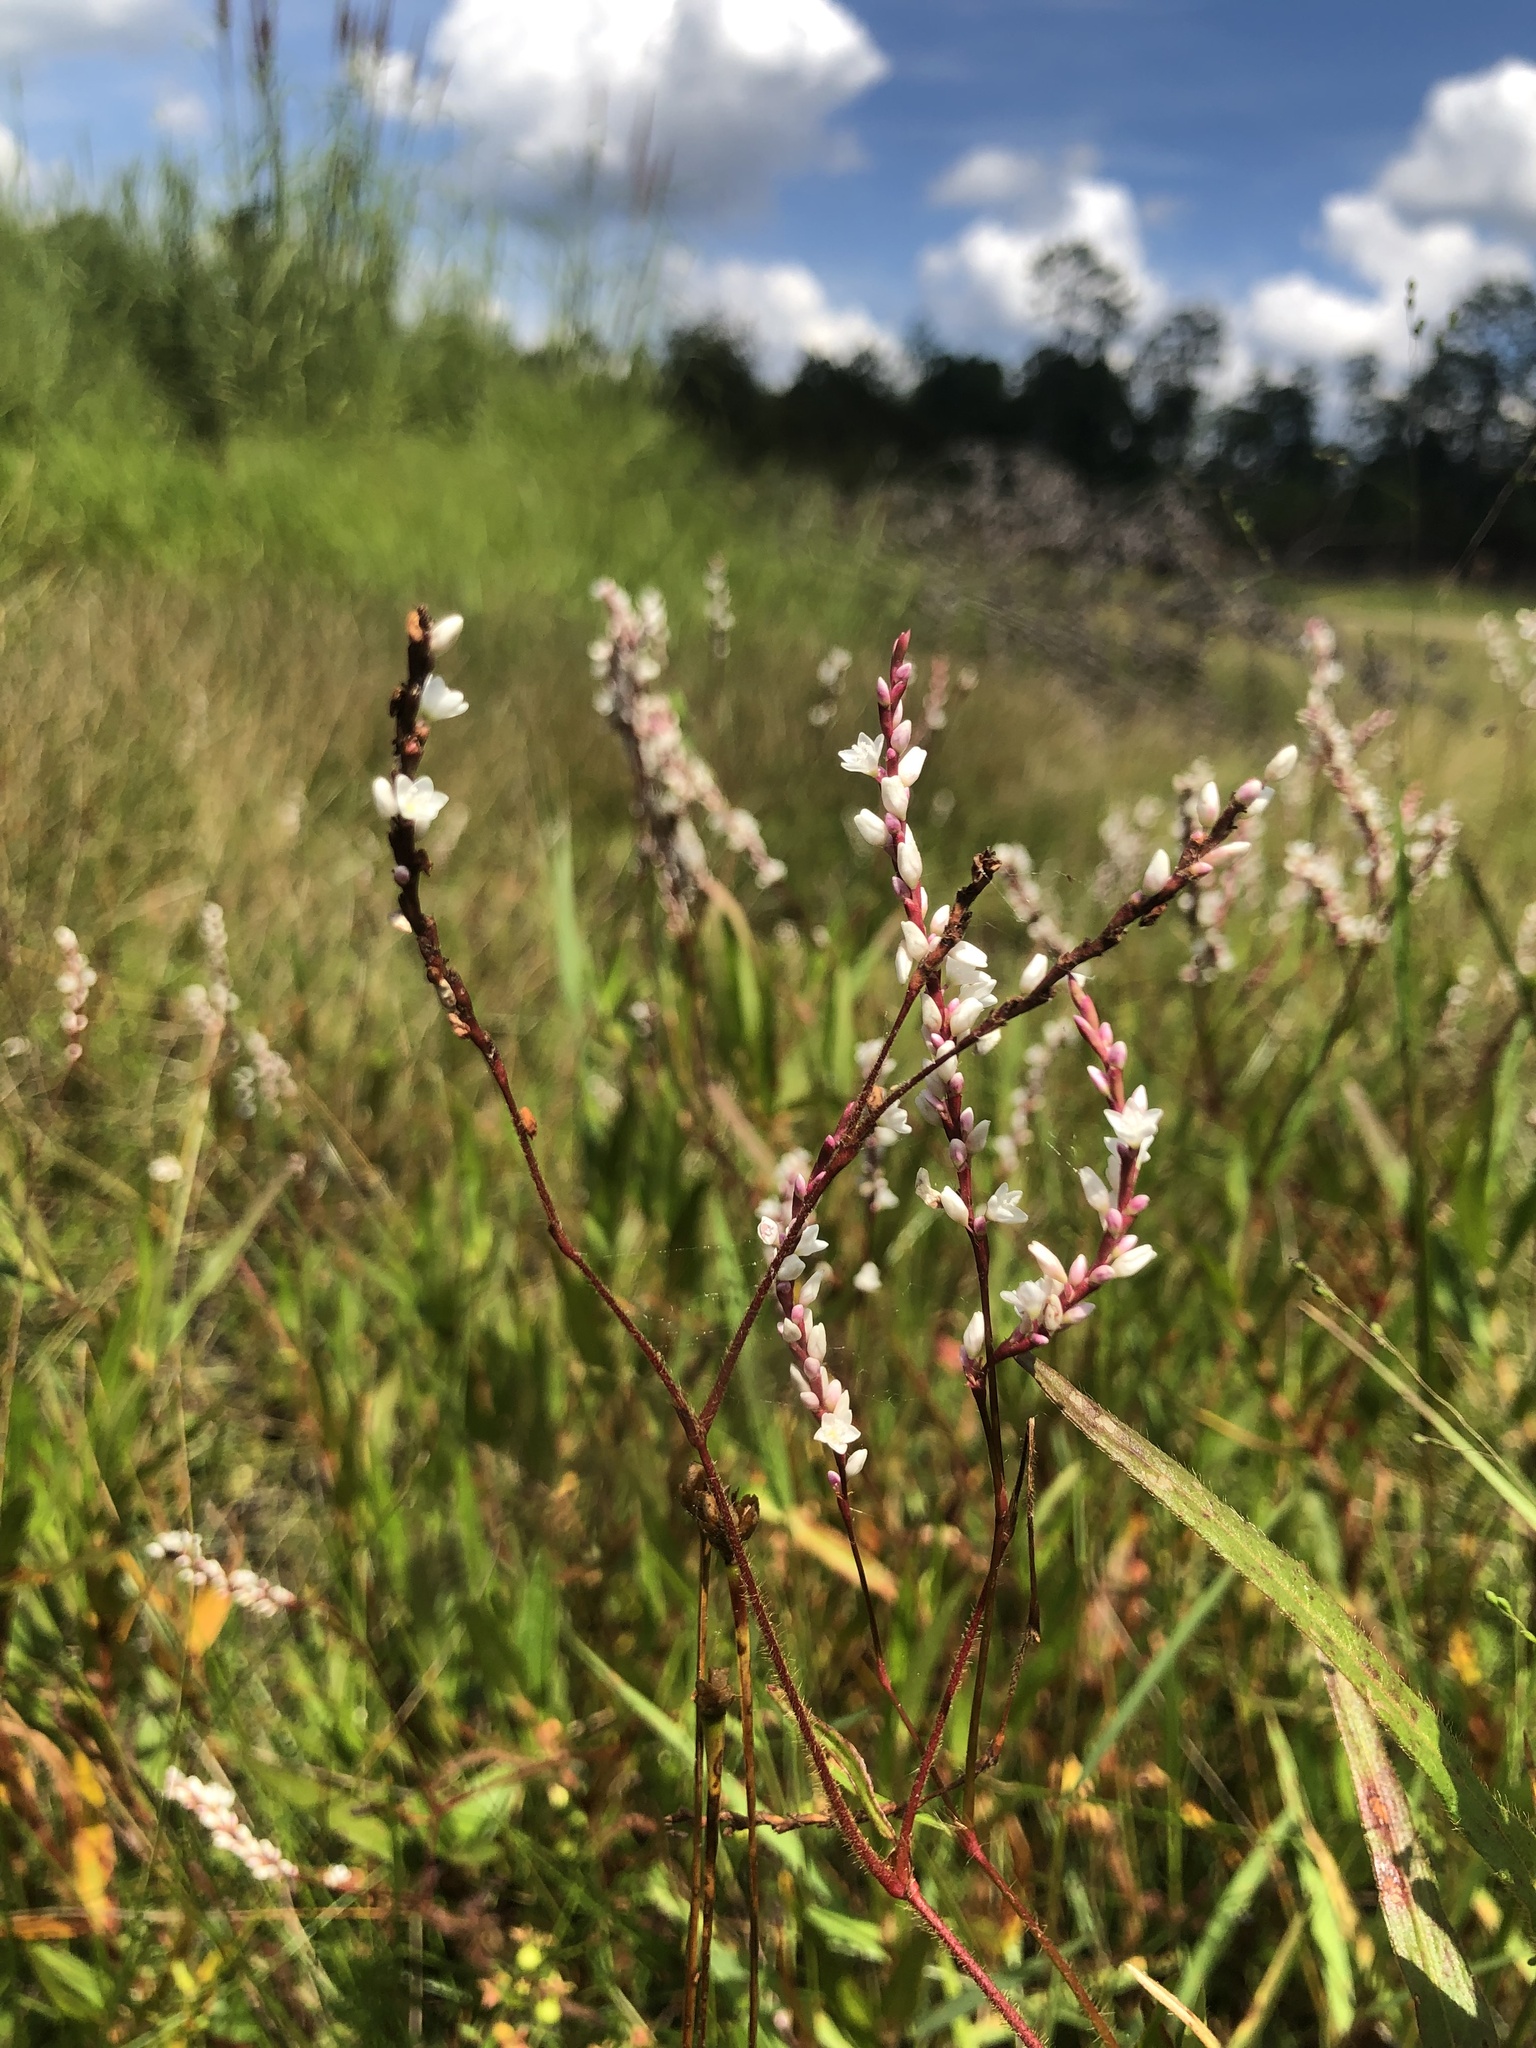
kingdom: Plantae
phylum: Tracheophyta
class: Magnoliopsida
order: Caryophyllales
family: Polygonaceae
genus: Persicaria
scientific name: Persicaria hirsuta
